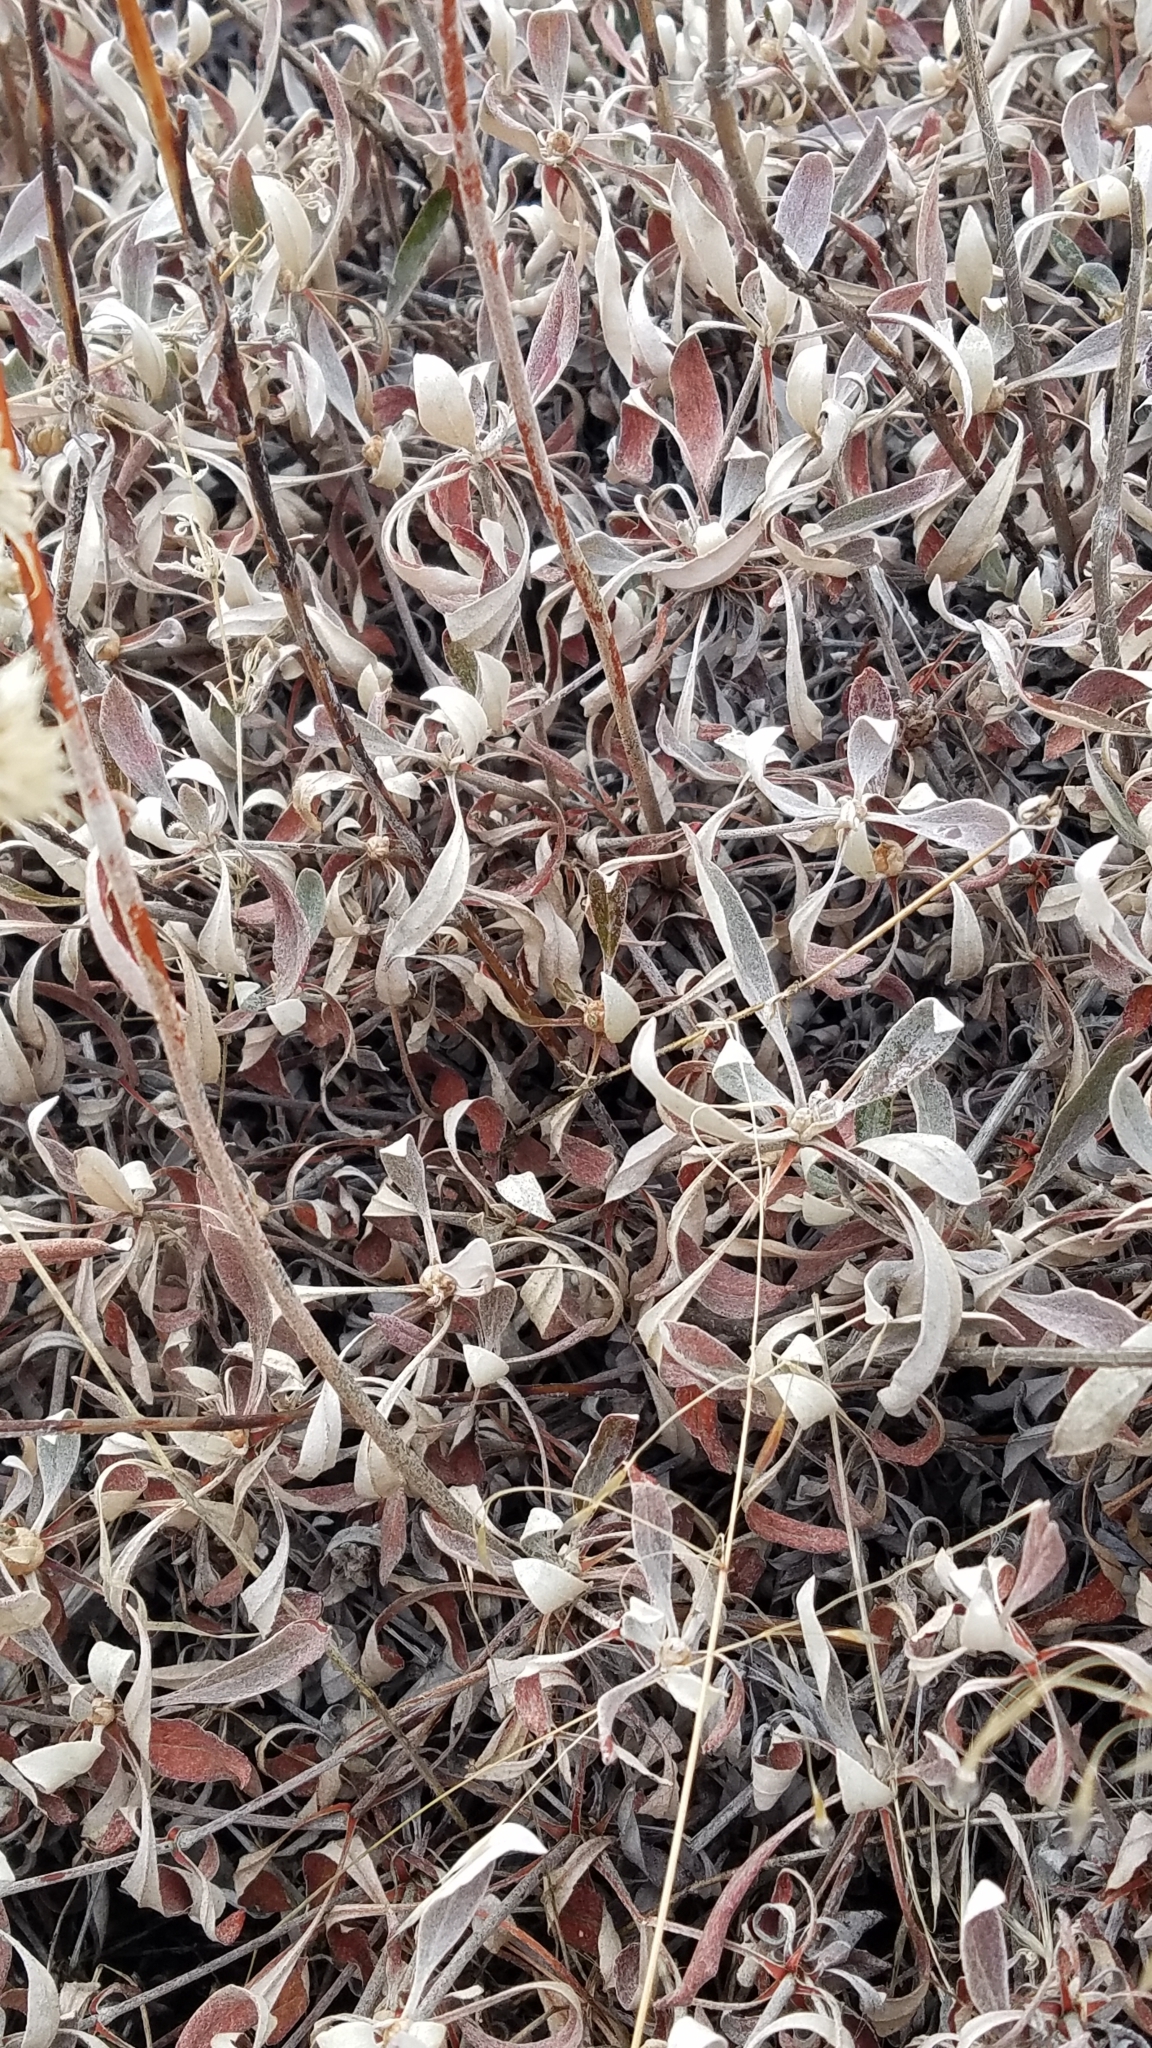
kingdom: Plantae
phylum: Tracheophyta
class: Magnoliopsida
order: Caryophyllales
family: Polygonaceae
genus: Eriogonum
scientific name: Eriogonum heracleoides
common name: Wyeth's buckwheat
